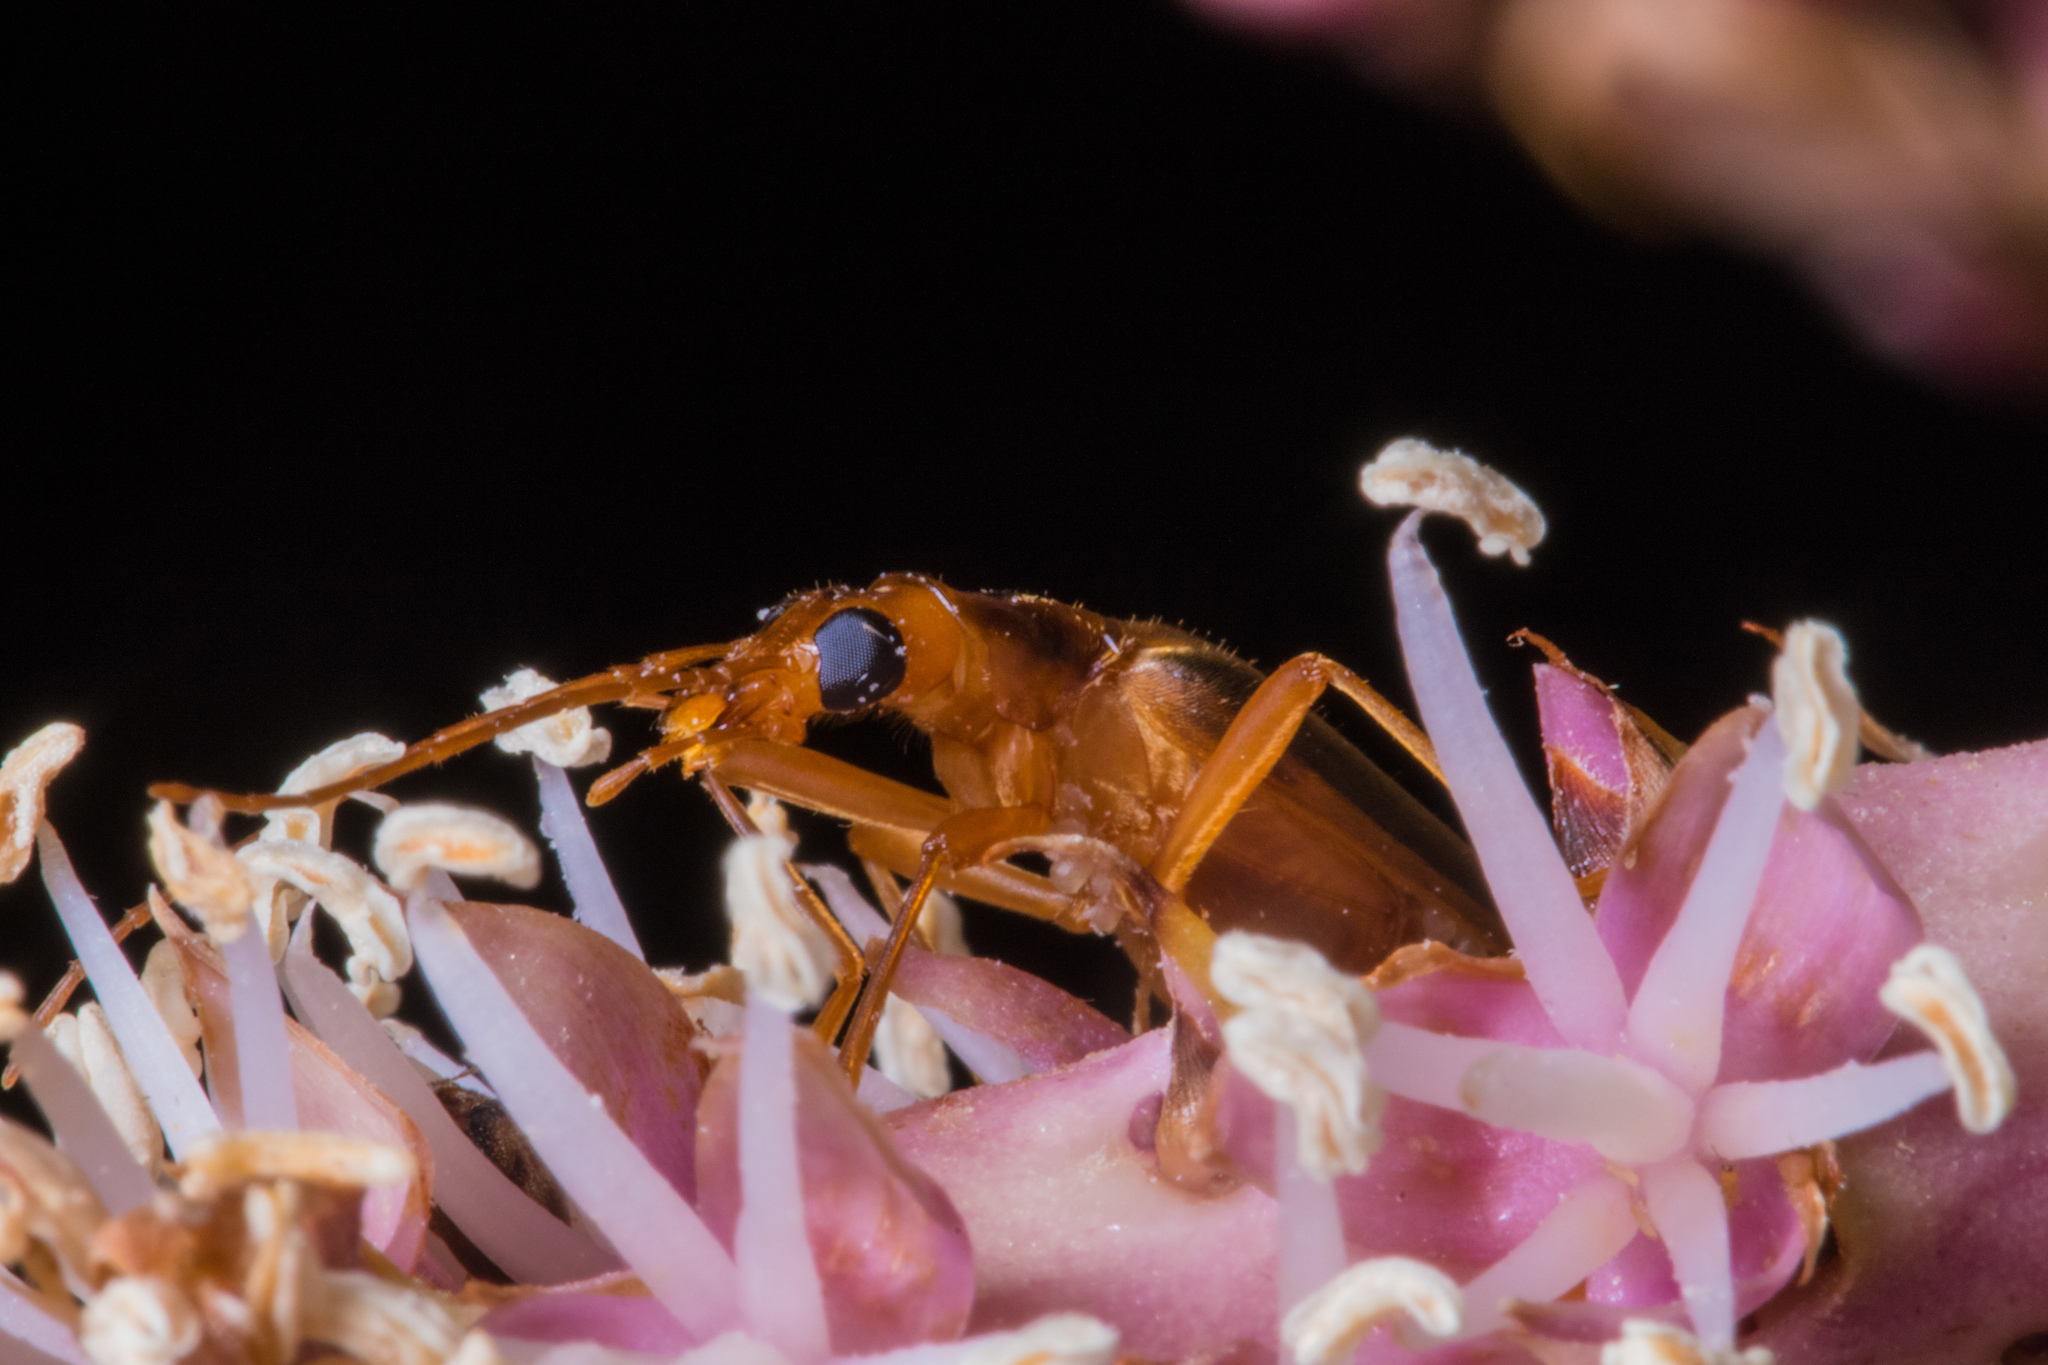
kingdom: Animalia
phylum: Arthropoda
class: Insecta
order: Coleoptera
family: Oedemeridae
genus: Thelyphassa
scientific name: Thelyphassa
